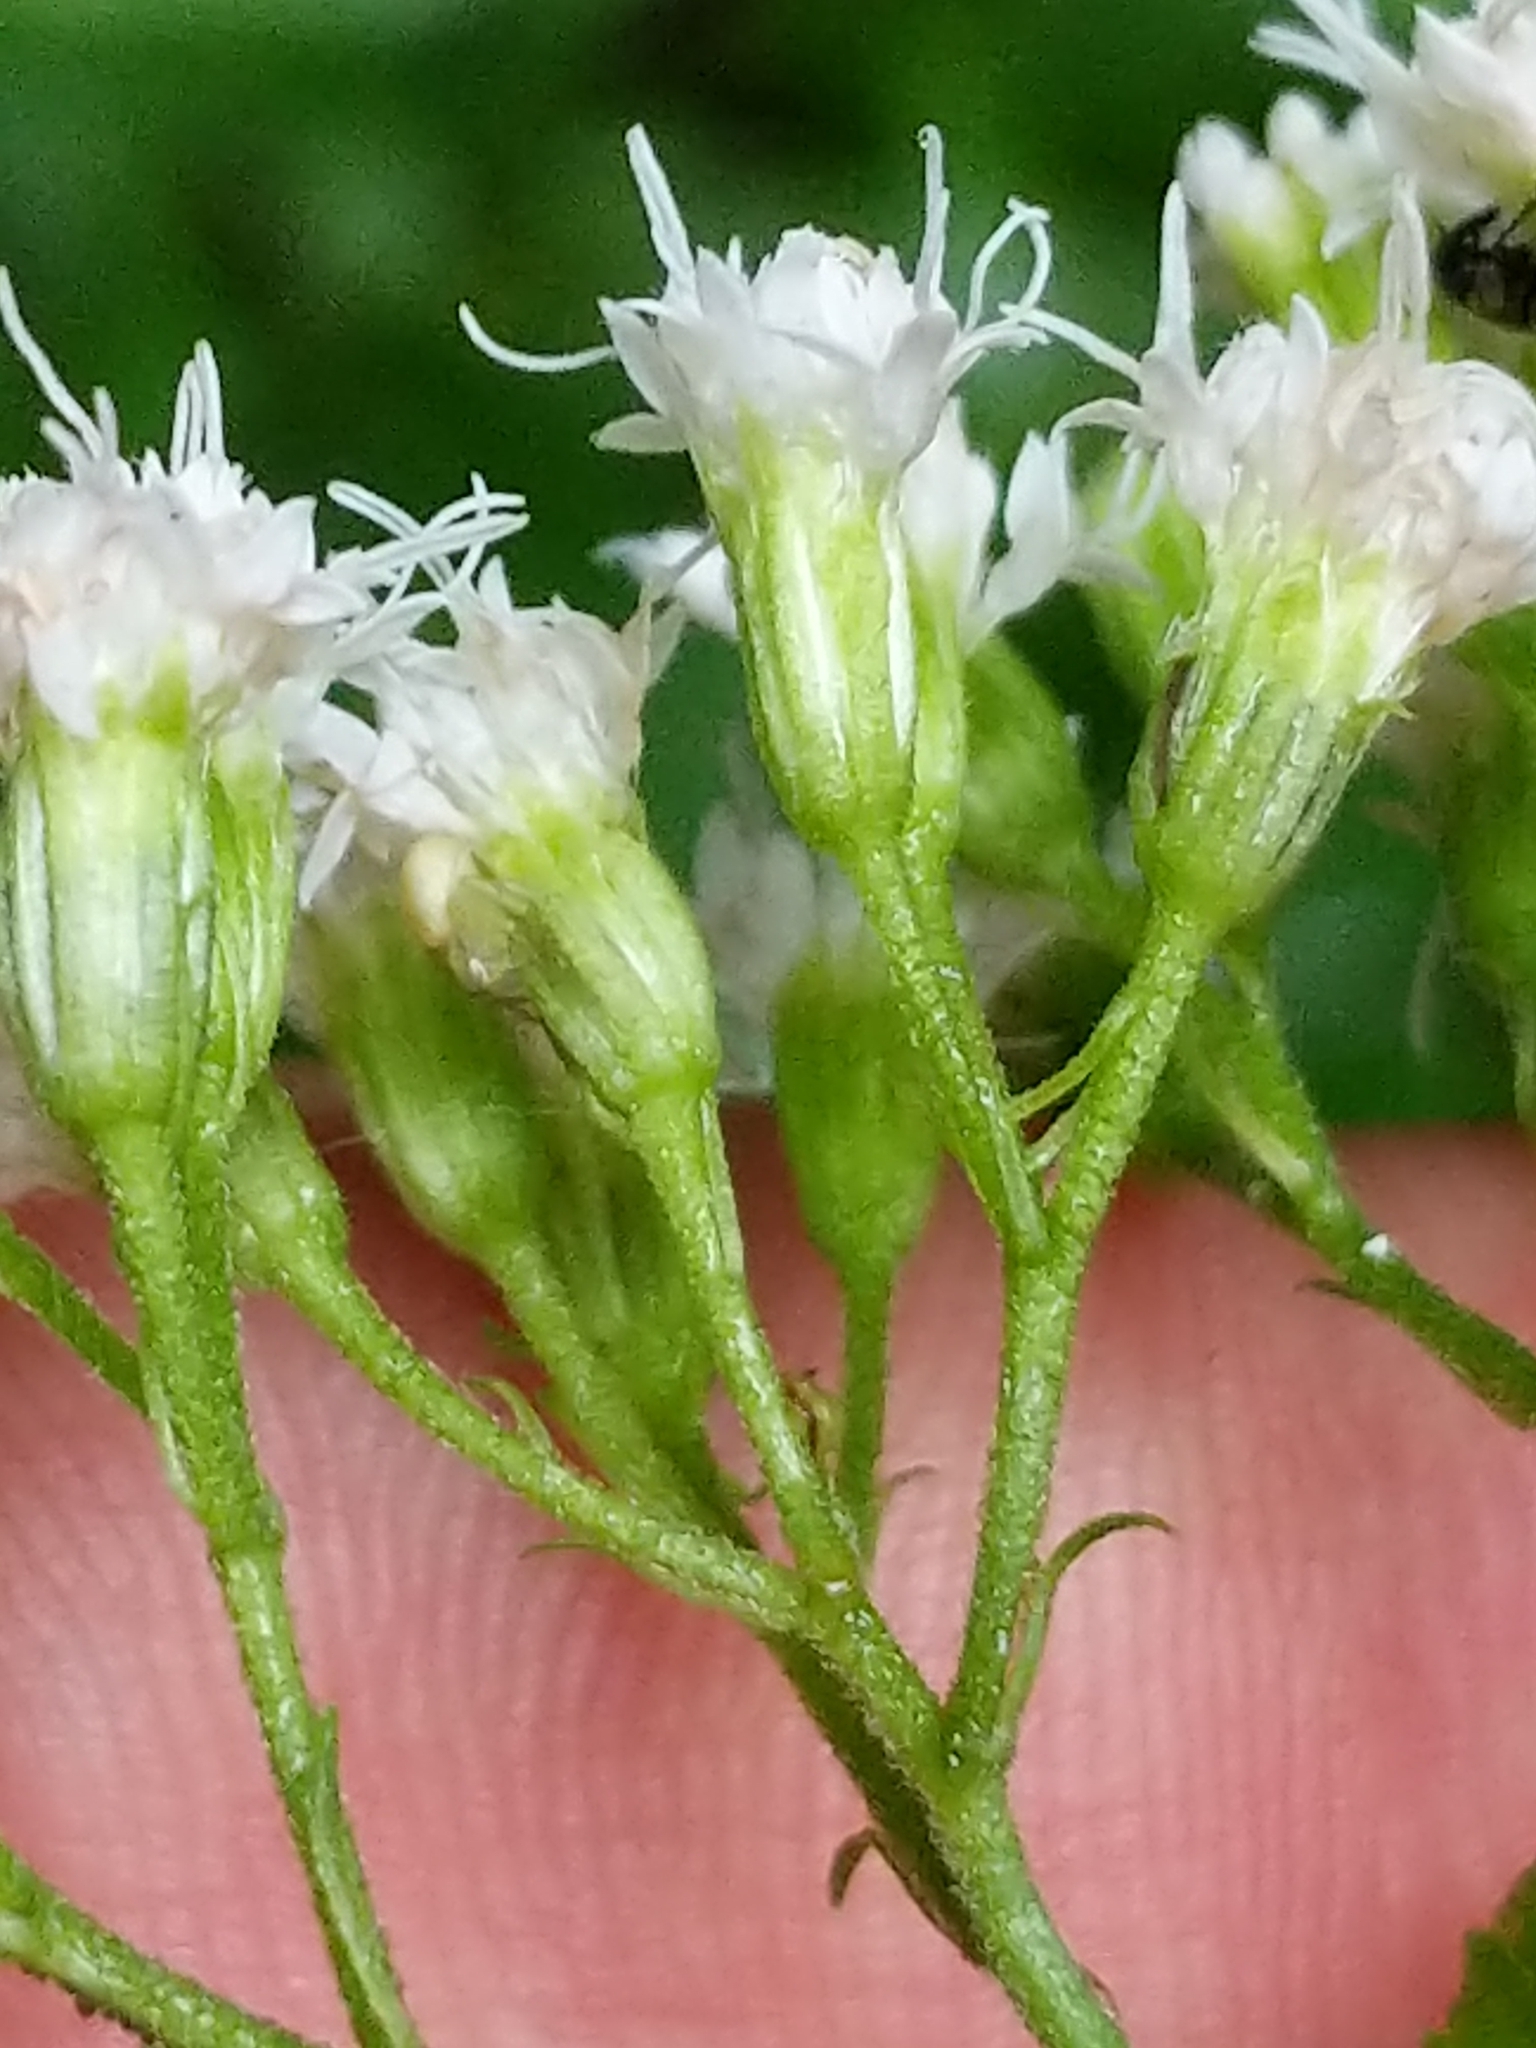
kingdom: Plantae
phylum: Tracheophyta
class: Magnoliopsida
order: Asterales
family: Asteraceae
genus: Ageratina
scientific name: Ageratina altissima
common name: White snakeroot
